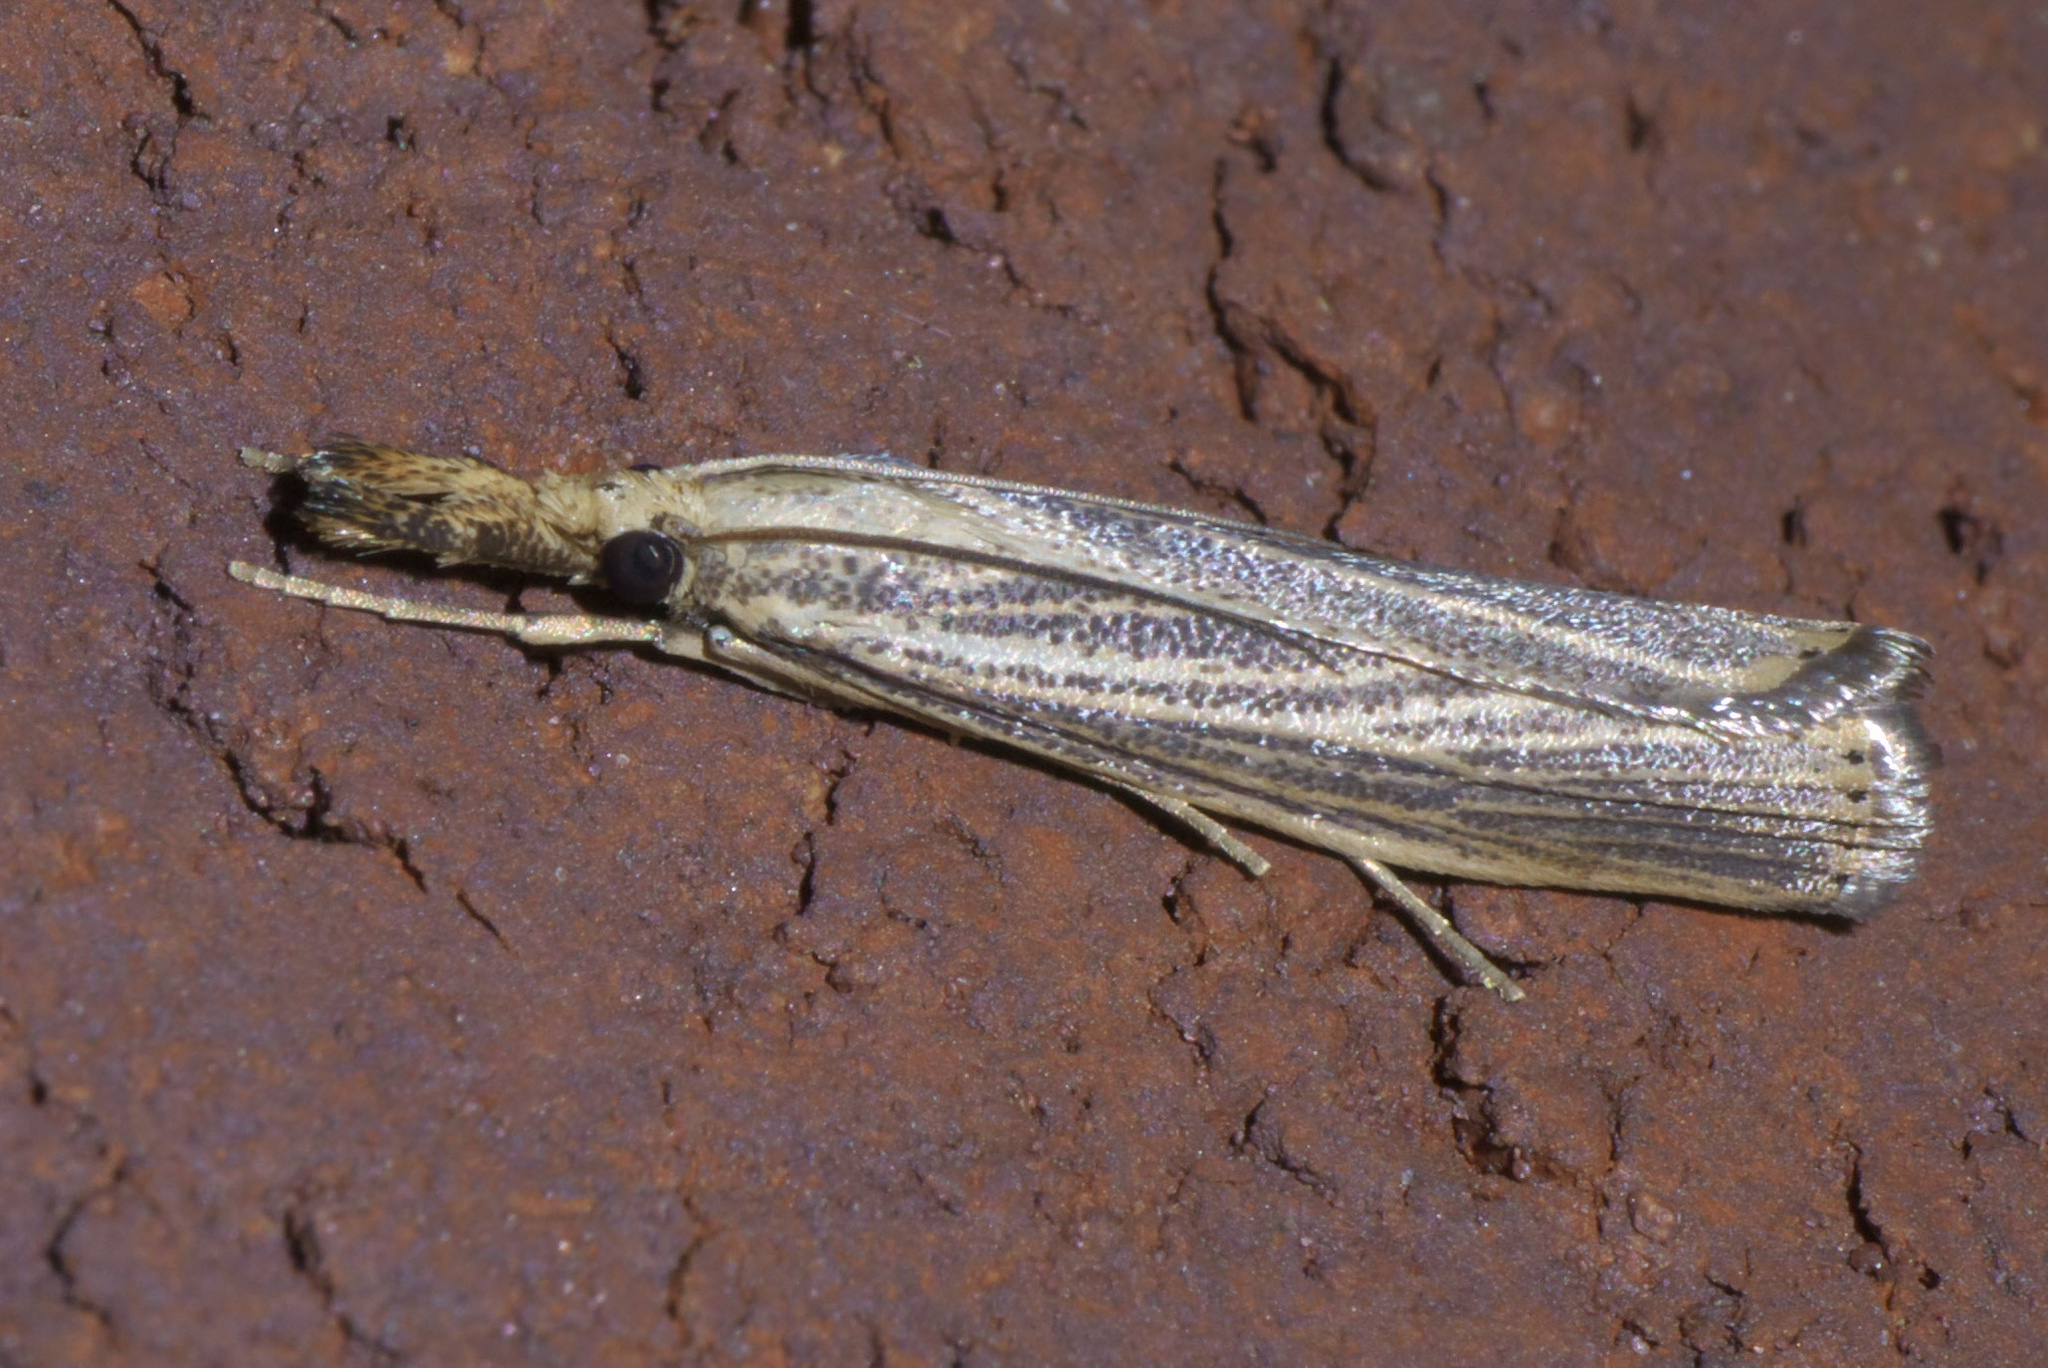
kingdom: Animalia
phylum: Arthropoda
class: Insecta
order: Lepidoptera
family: Crambidae
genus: Agriphila
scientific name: Agriphila vulgivagellus
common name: Vagabond crambus moth
